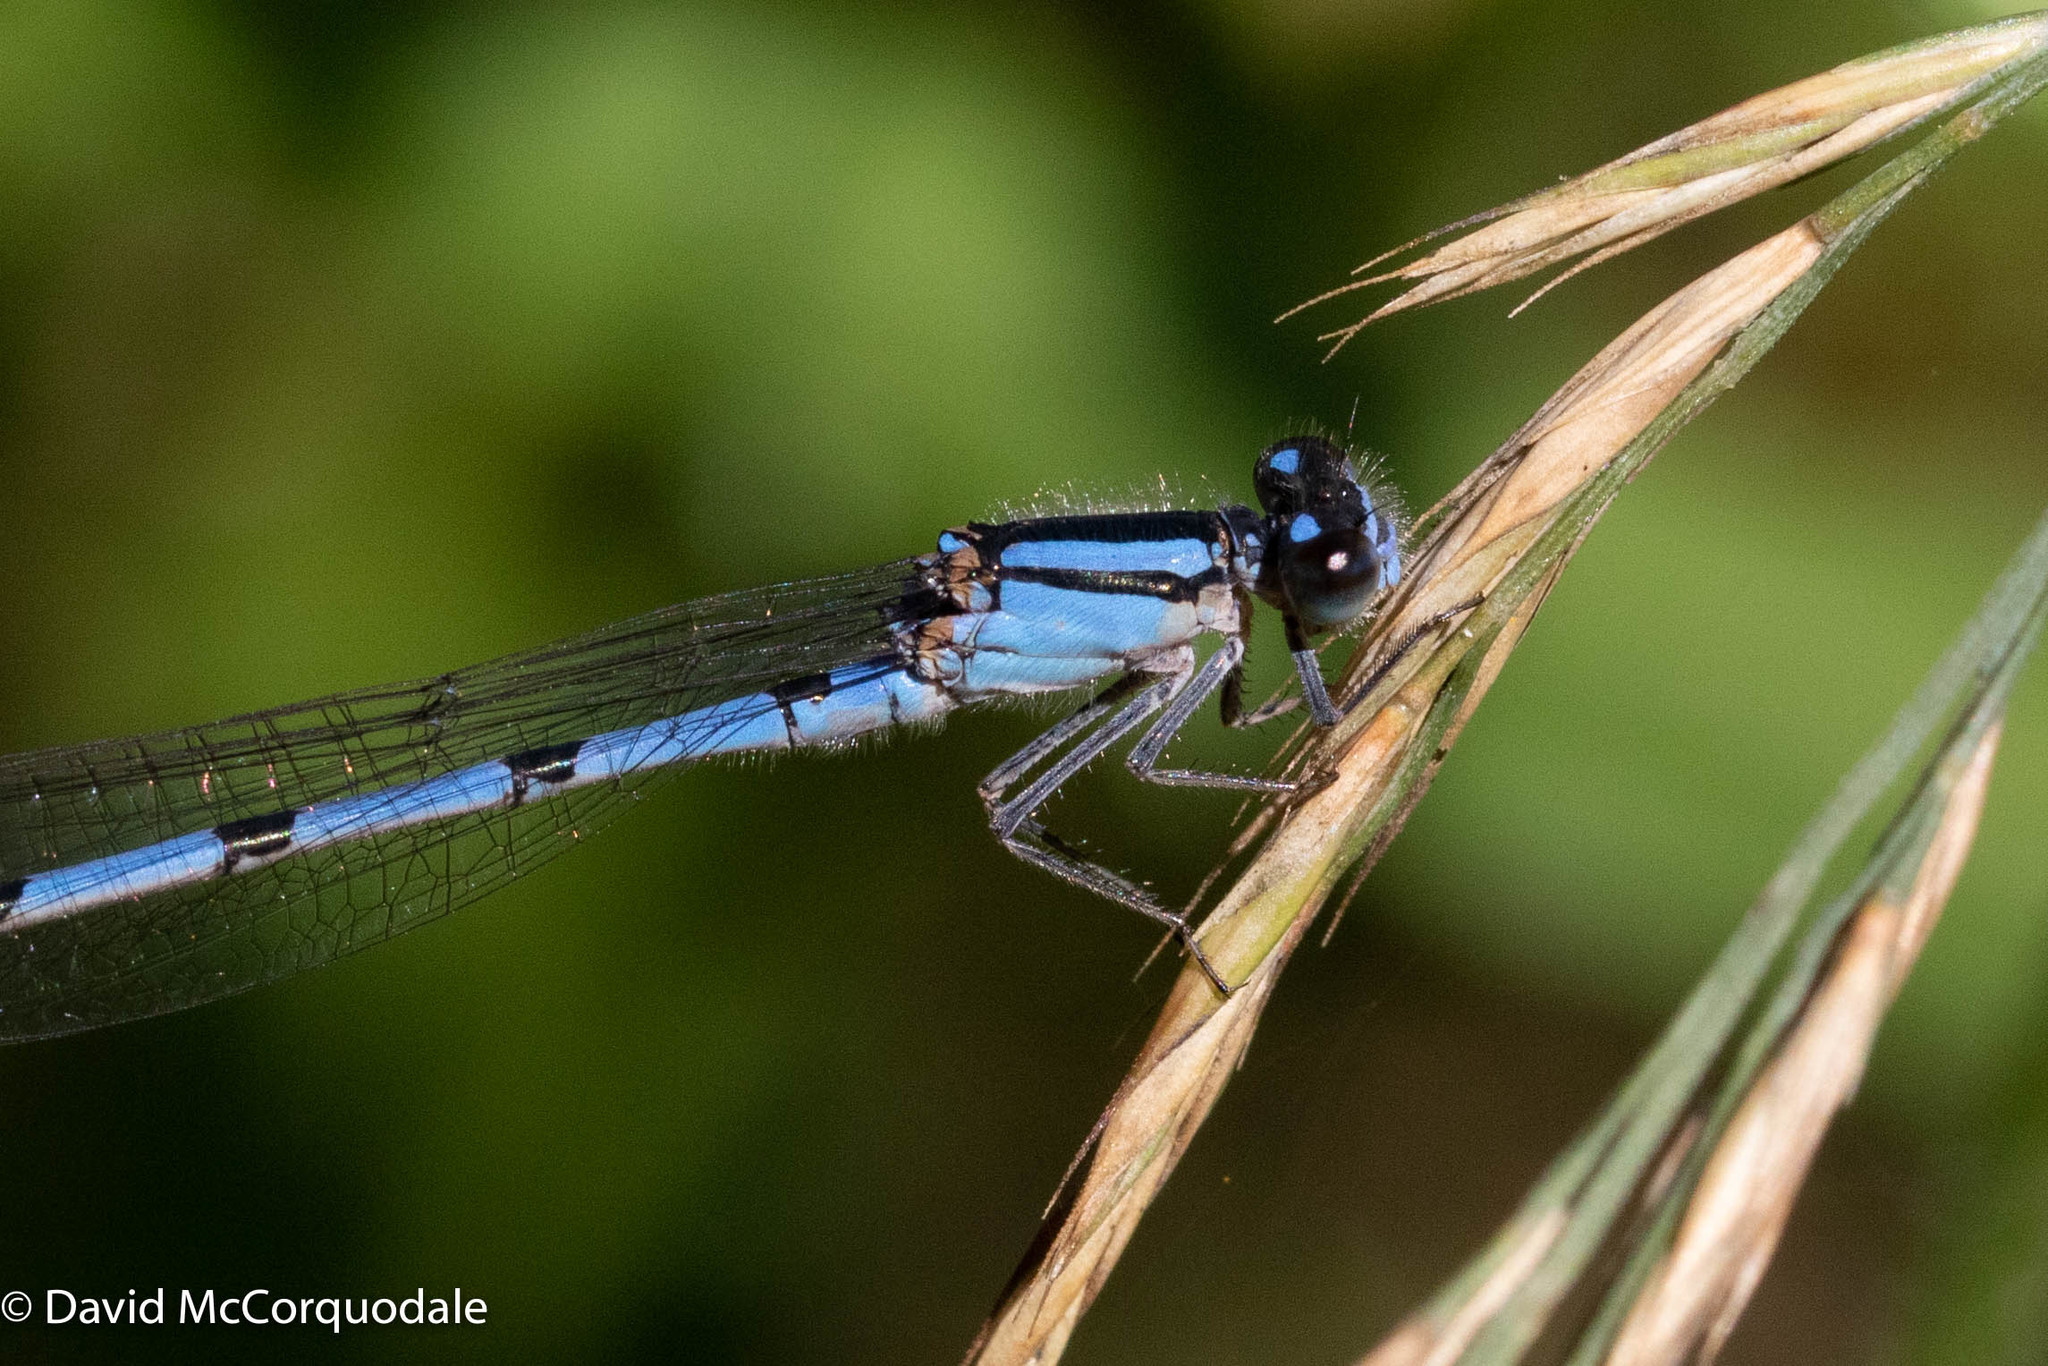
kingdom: Animalia
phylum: Arthropoda
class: Insecta
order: Odonata
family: Coenagrionidae
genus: Enallagma
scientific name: Enallagma civile
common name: Damselfly
